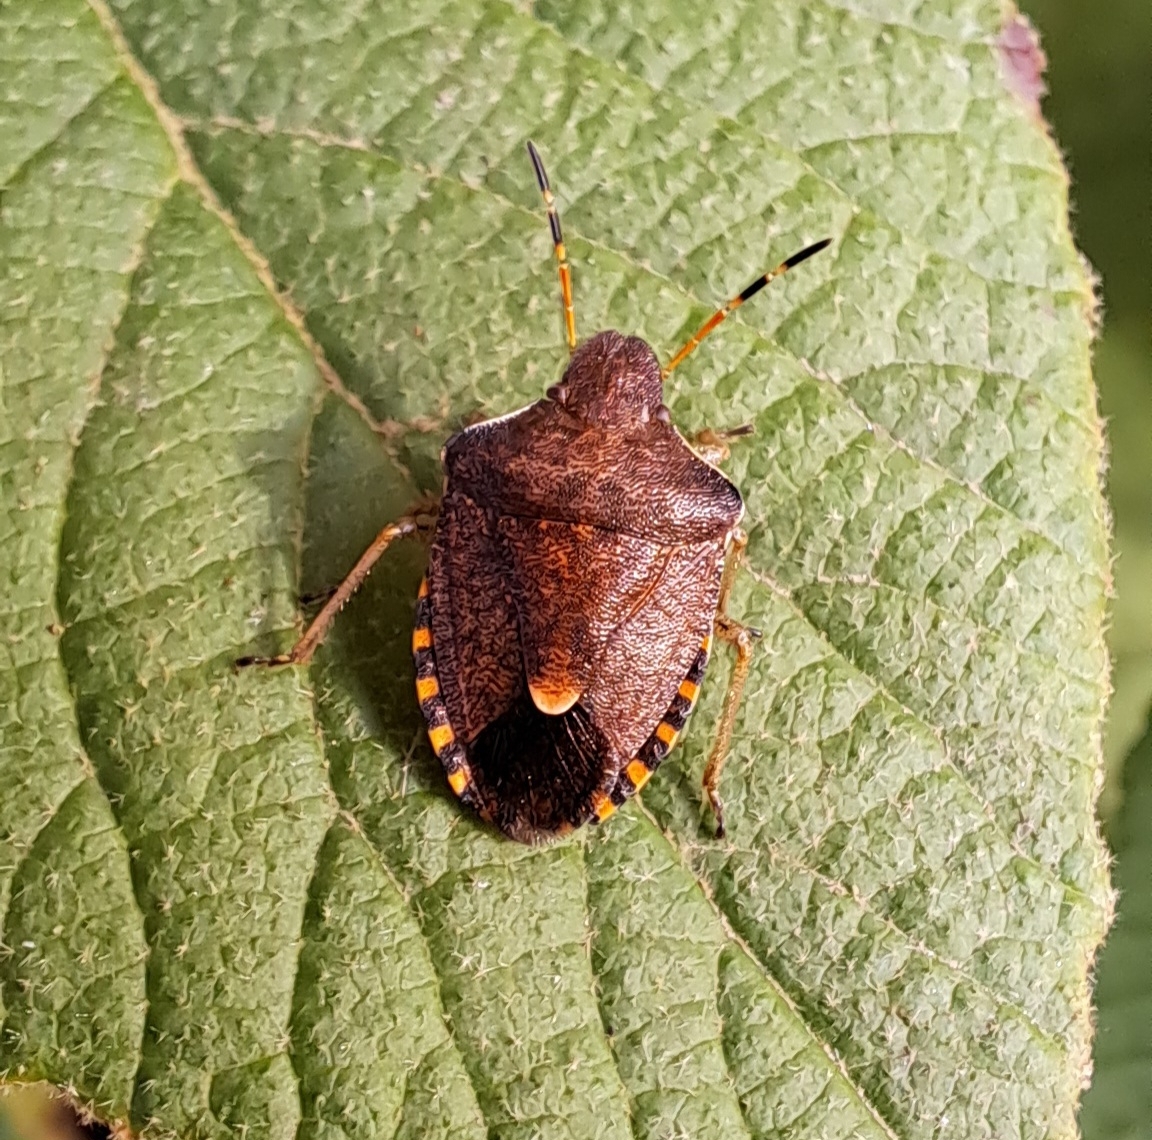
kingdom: Animalia
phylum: Arthropoda
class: Insecta
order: Hemiptera
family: Pentatomidae
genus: Holcostethus
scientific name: Holcostethus strictus
